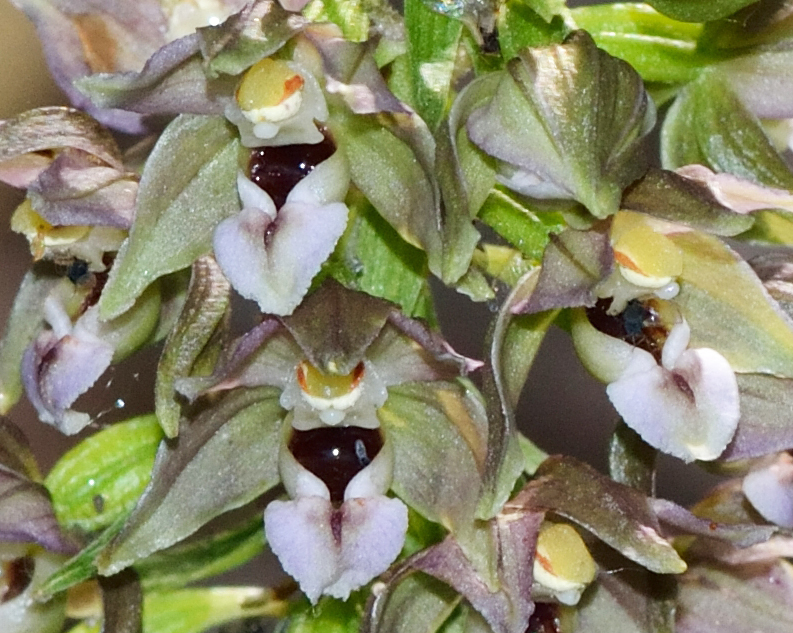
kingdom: Plantae
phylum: Tracheophyta
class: Liliopsida
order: Asparagales
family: Orchidaceae
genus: Epipactis
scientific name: Epipactis helleborine
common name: Broad-leaved helleborine
